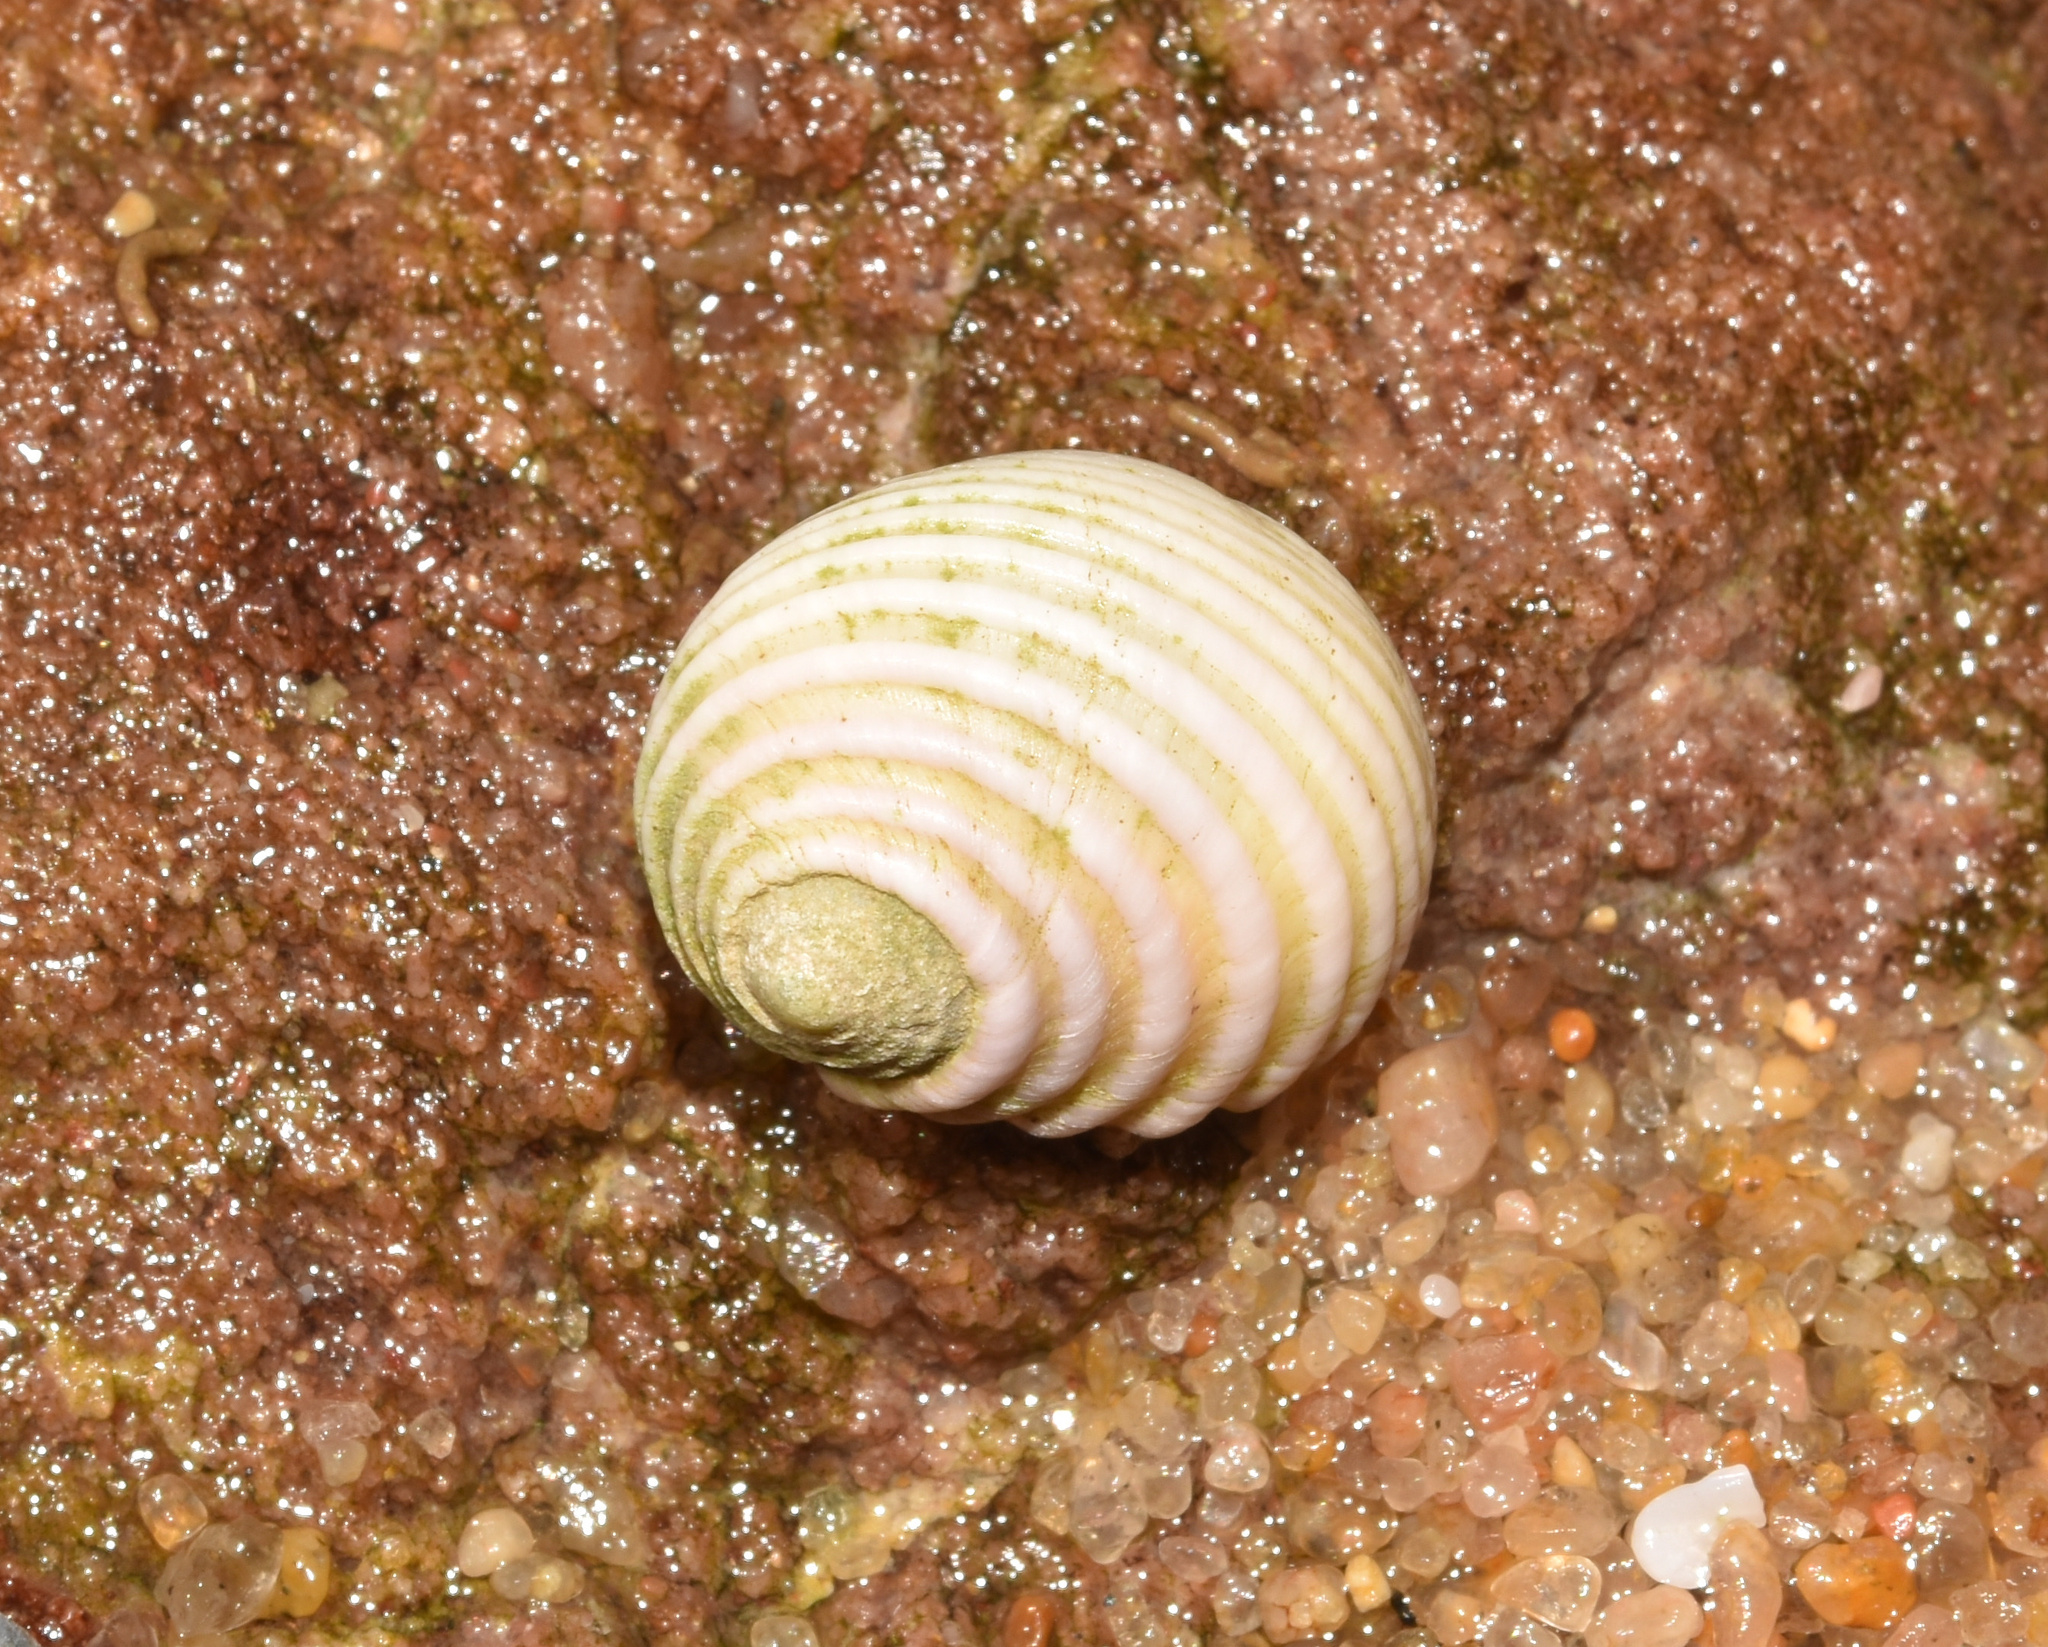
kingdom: Animalia
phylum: Mollusca
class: Gastropoda
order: Cycloneritida
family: Neritidae
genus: Nerita
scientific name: Nerita plicata
